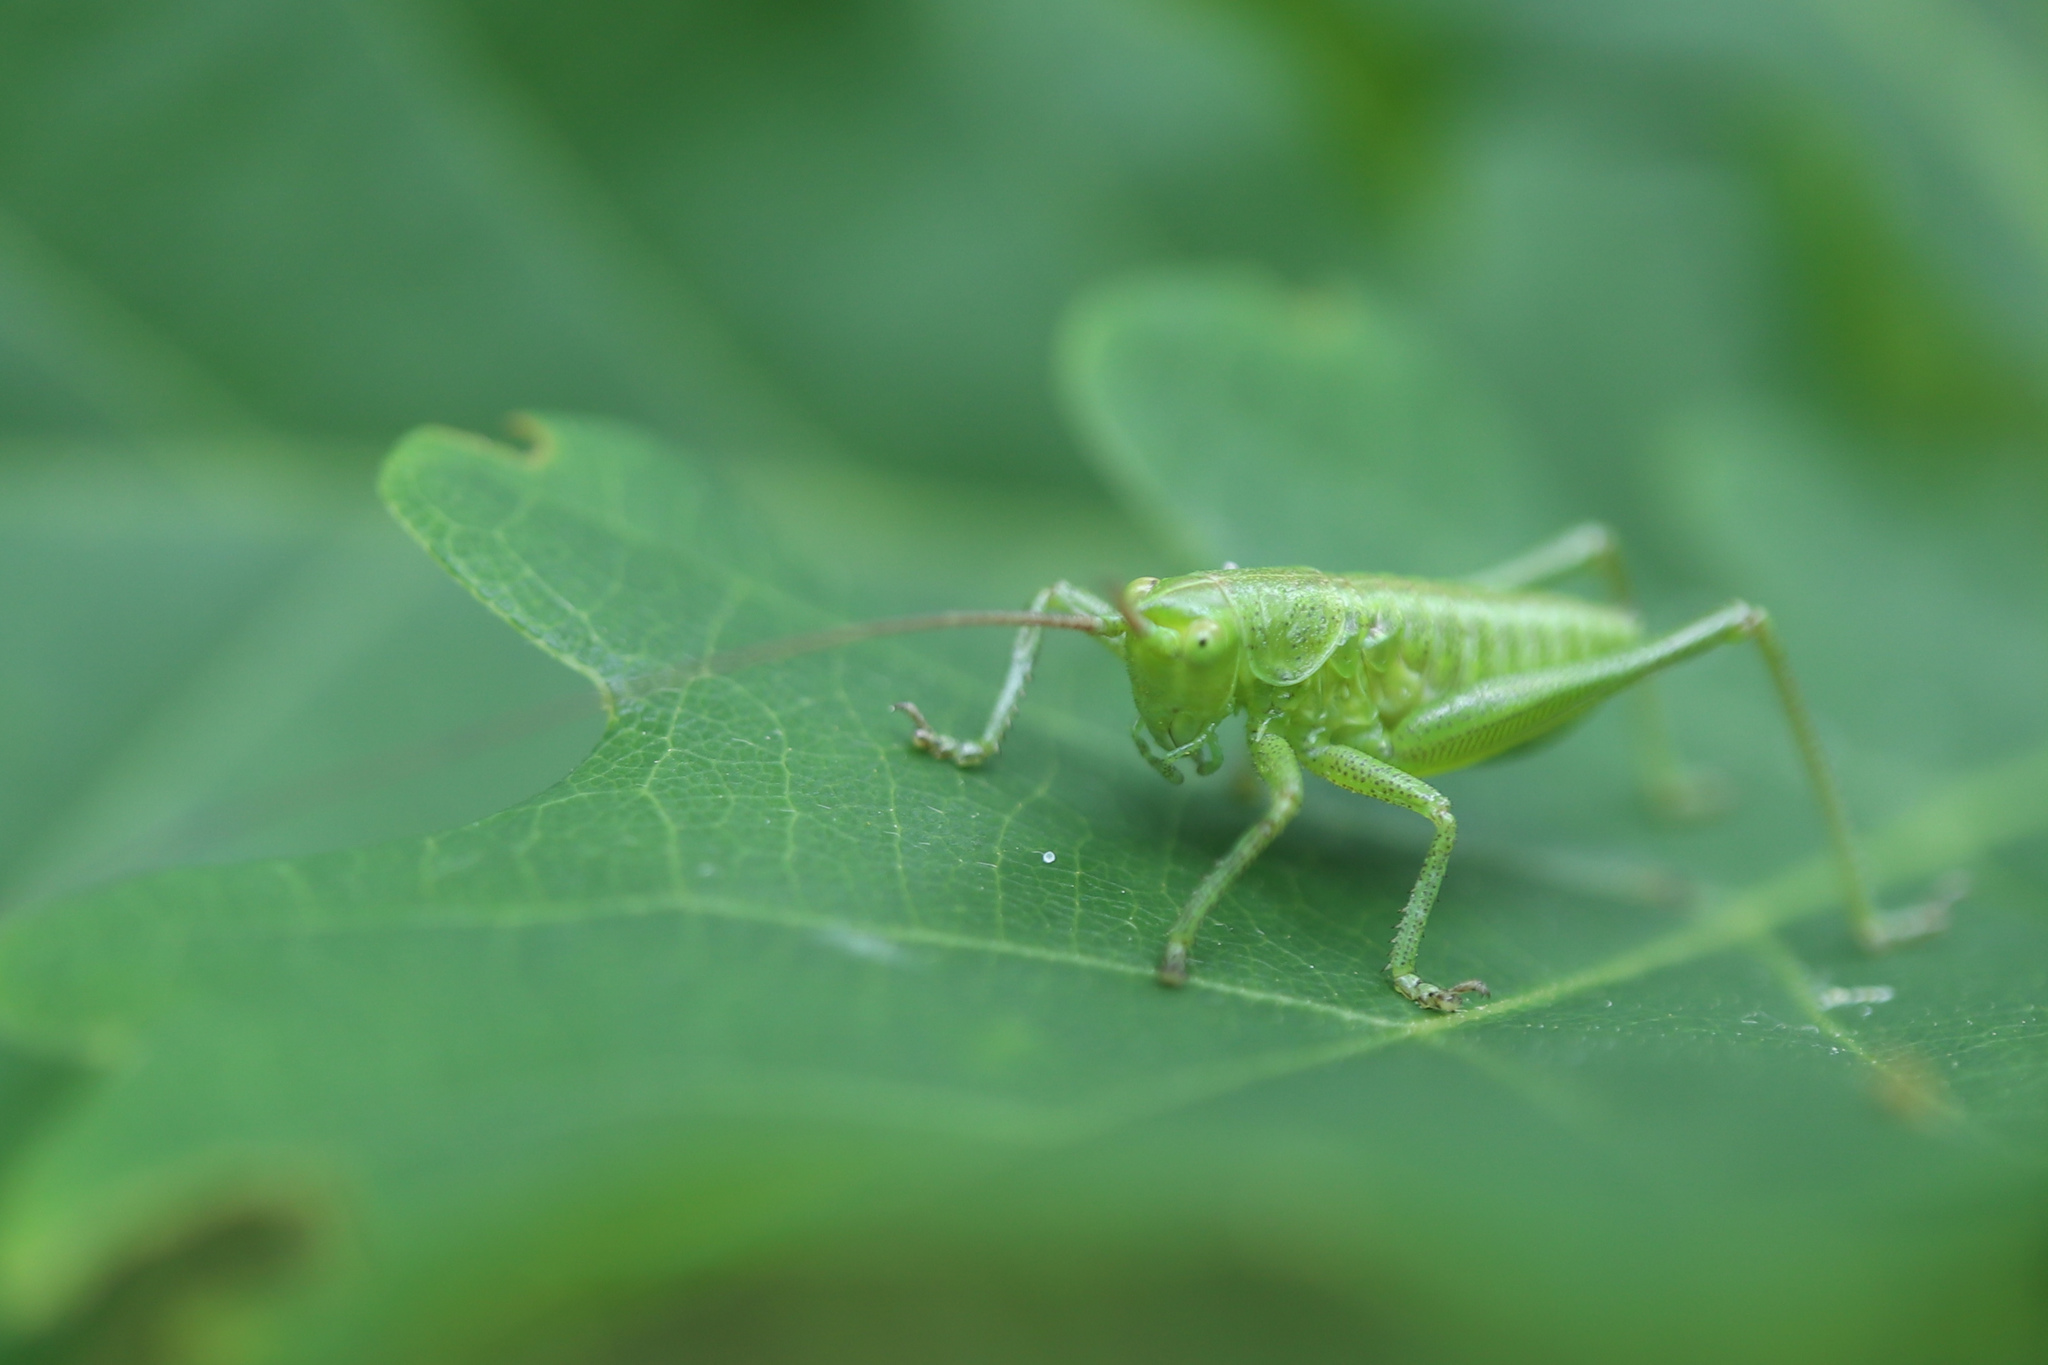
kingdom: Animalia
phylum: Arthropoda
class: Insecta
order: Orthoptera
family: Tettigoniidae
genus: Tettigonia
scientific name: Tettigonia viridissima
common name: Great green bush-cricket
